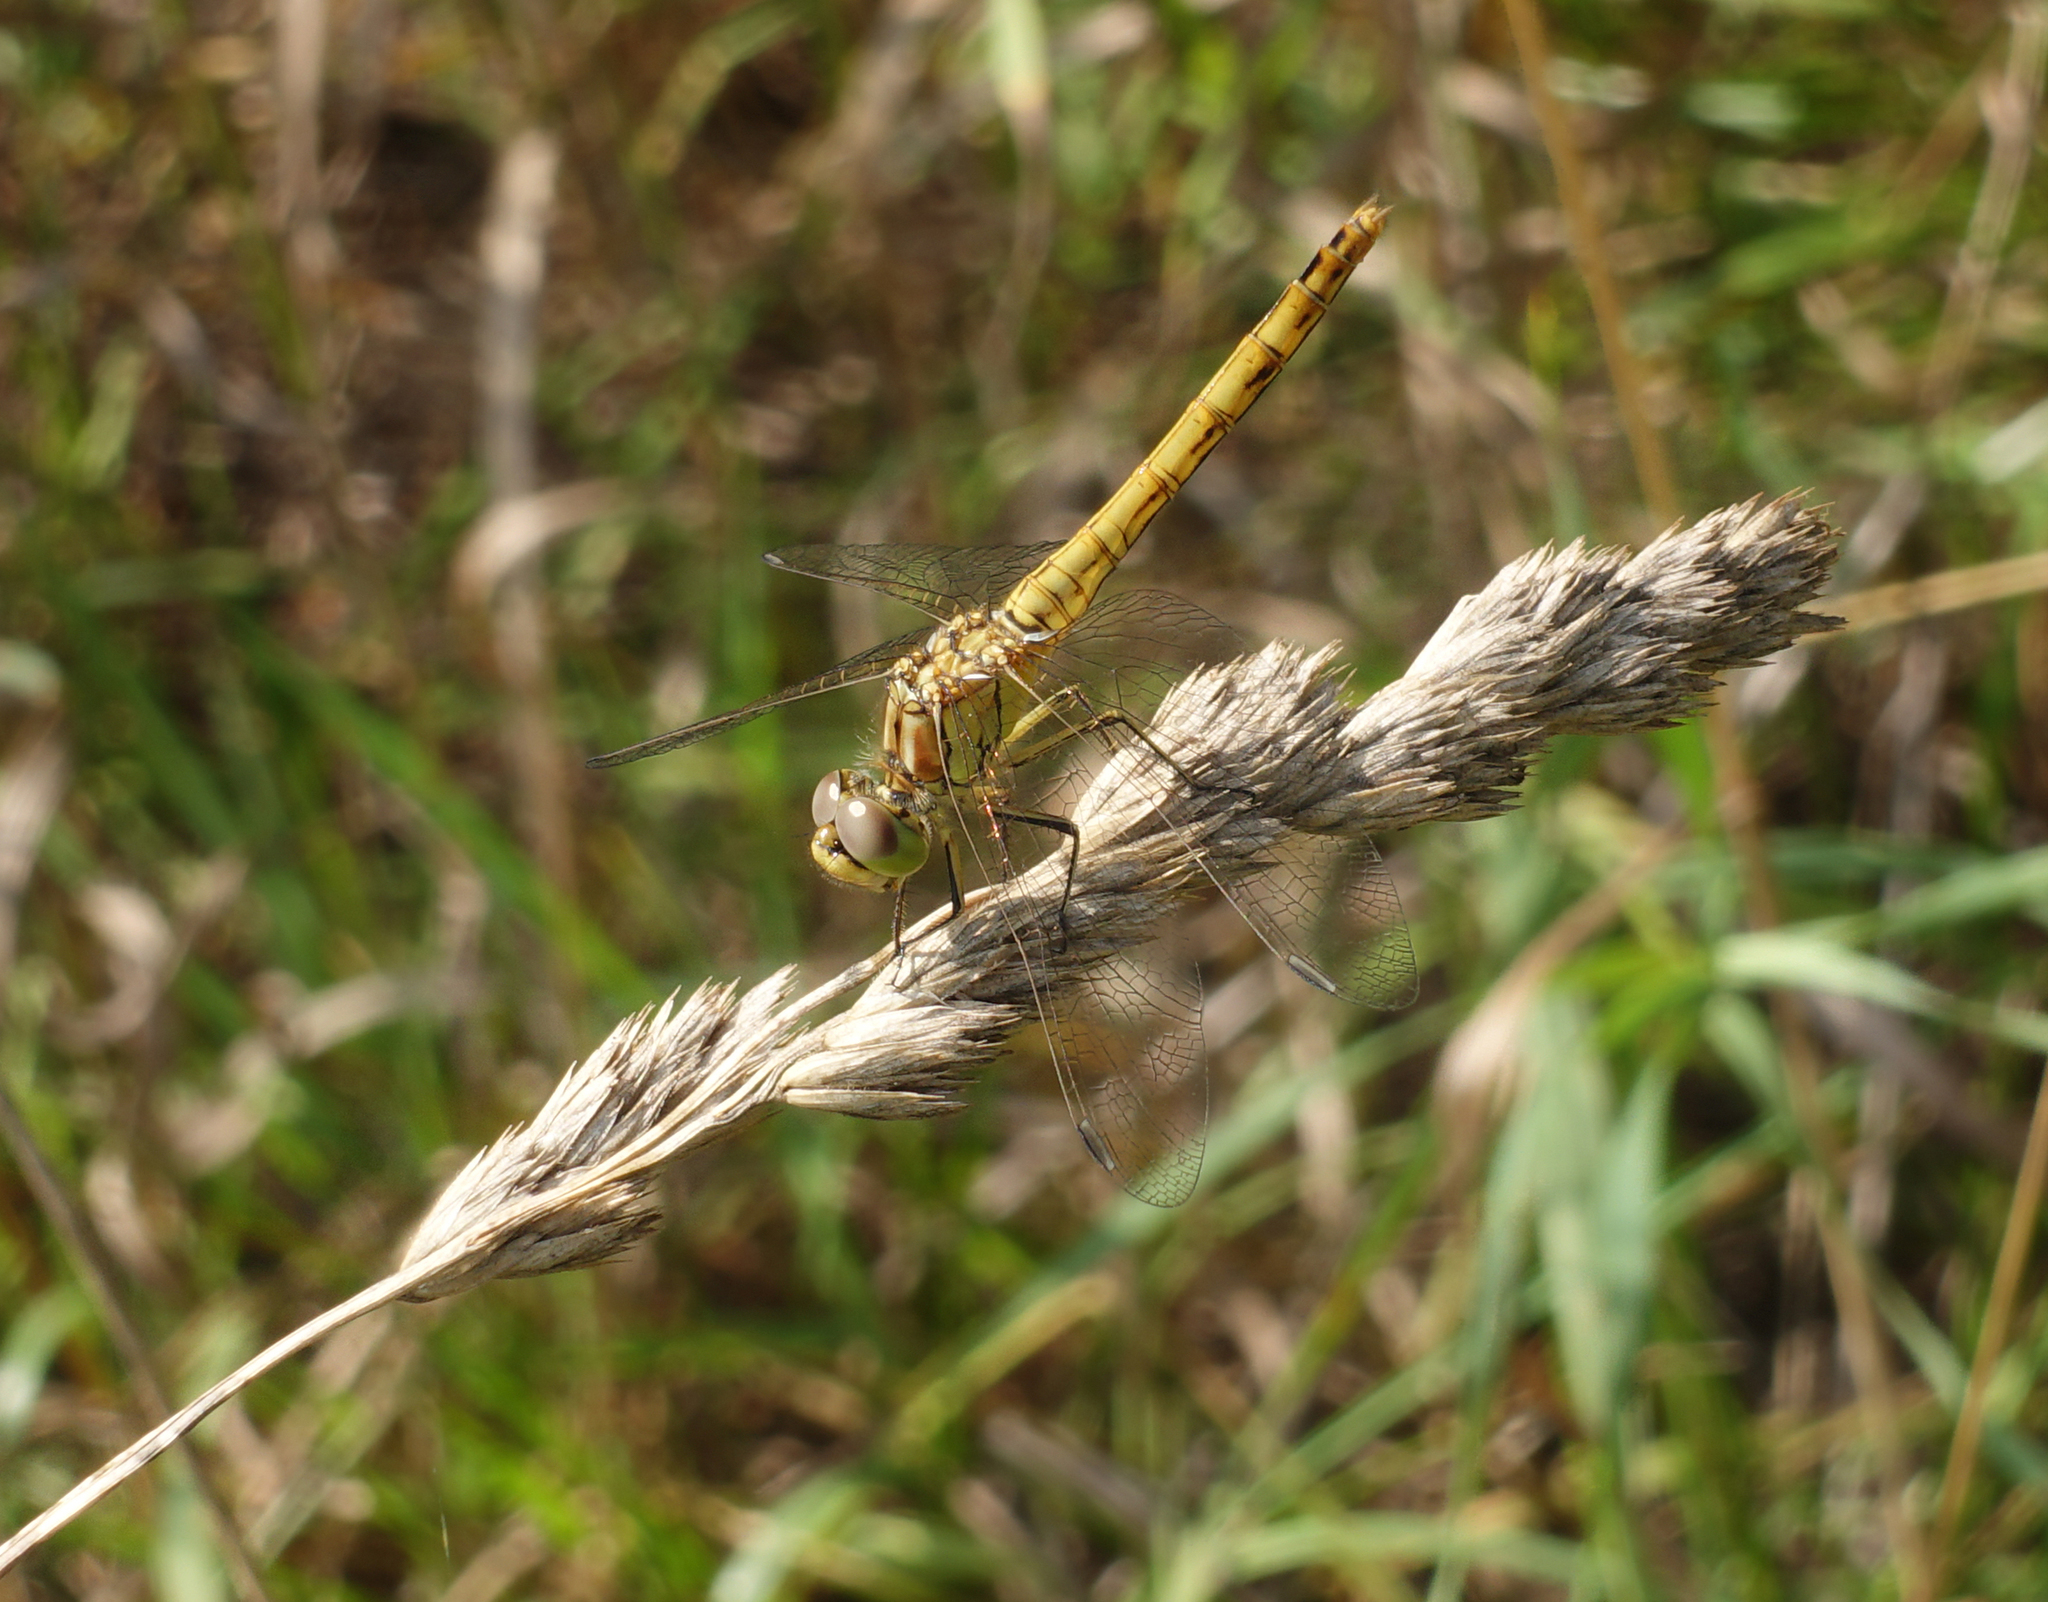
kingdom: Animalia
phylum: Arthropoda
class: Insecta
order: Odonata
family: Libellulidae
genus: Sympetrum
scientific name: Sympetrum vulgatum
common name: Vagrant darter
